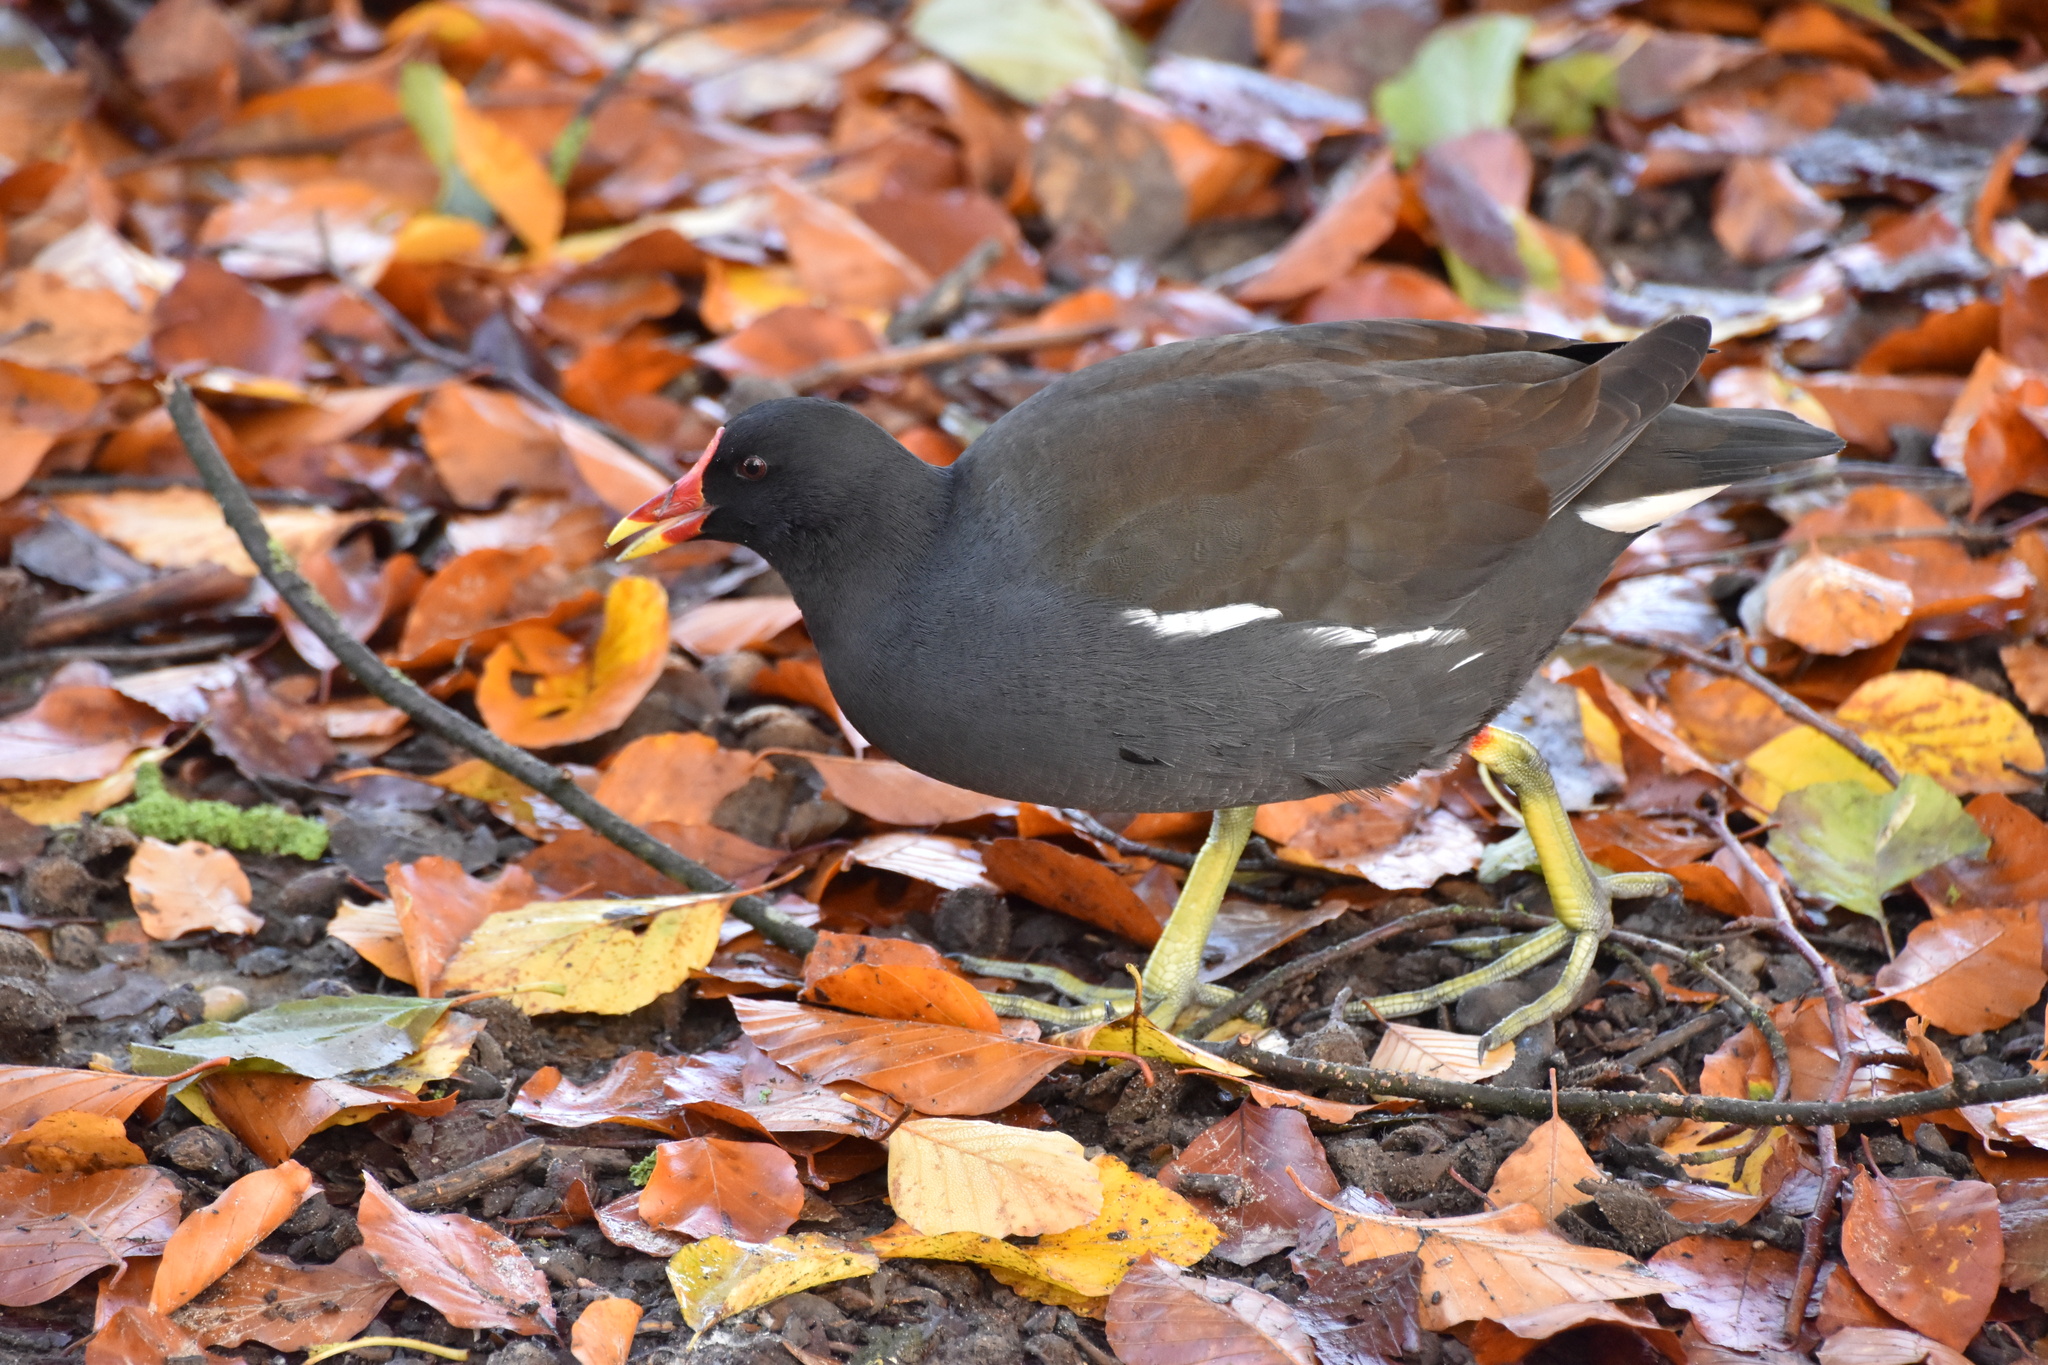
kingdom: Animalia
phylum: Chordata
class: Aves
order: Gruiformes
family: Rallidae
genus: Gallinula
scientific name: Gallinula chloropus
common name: Common moorhen
